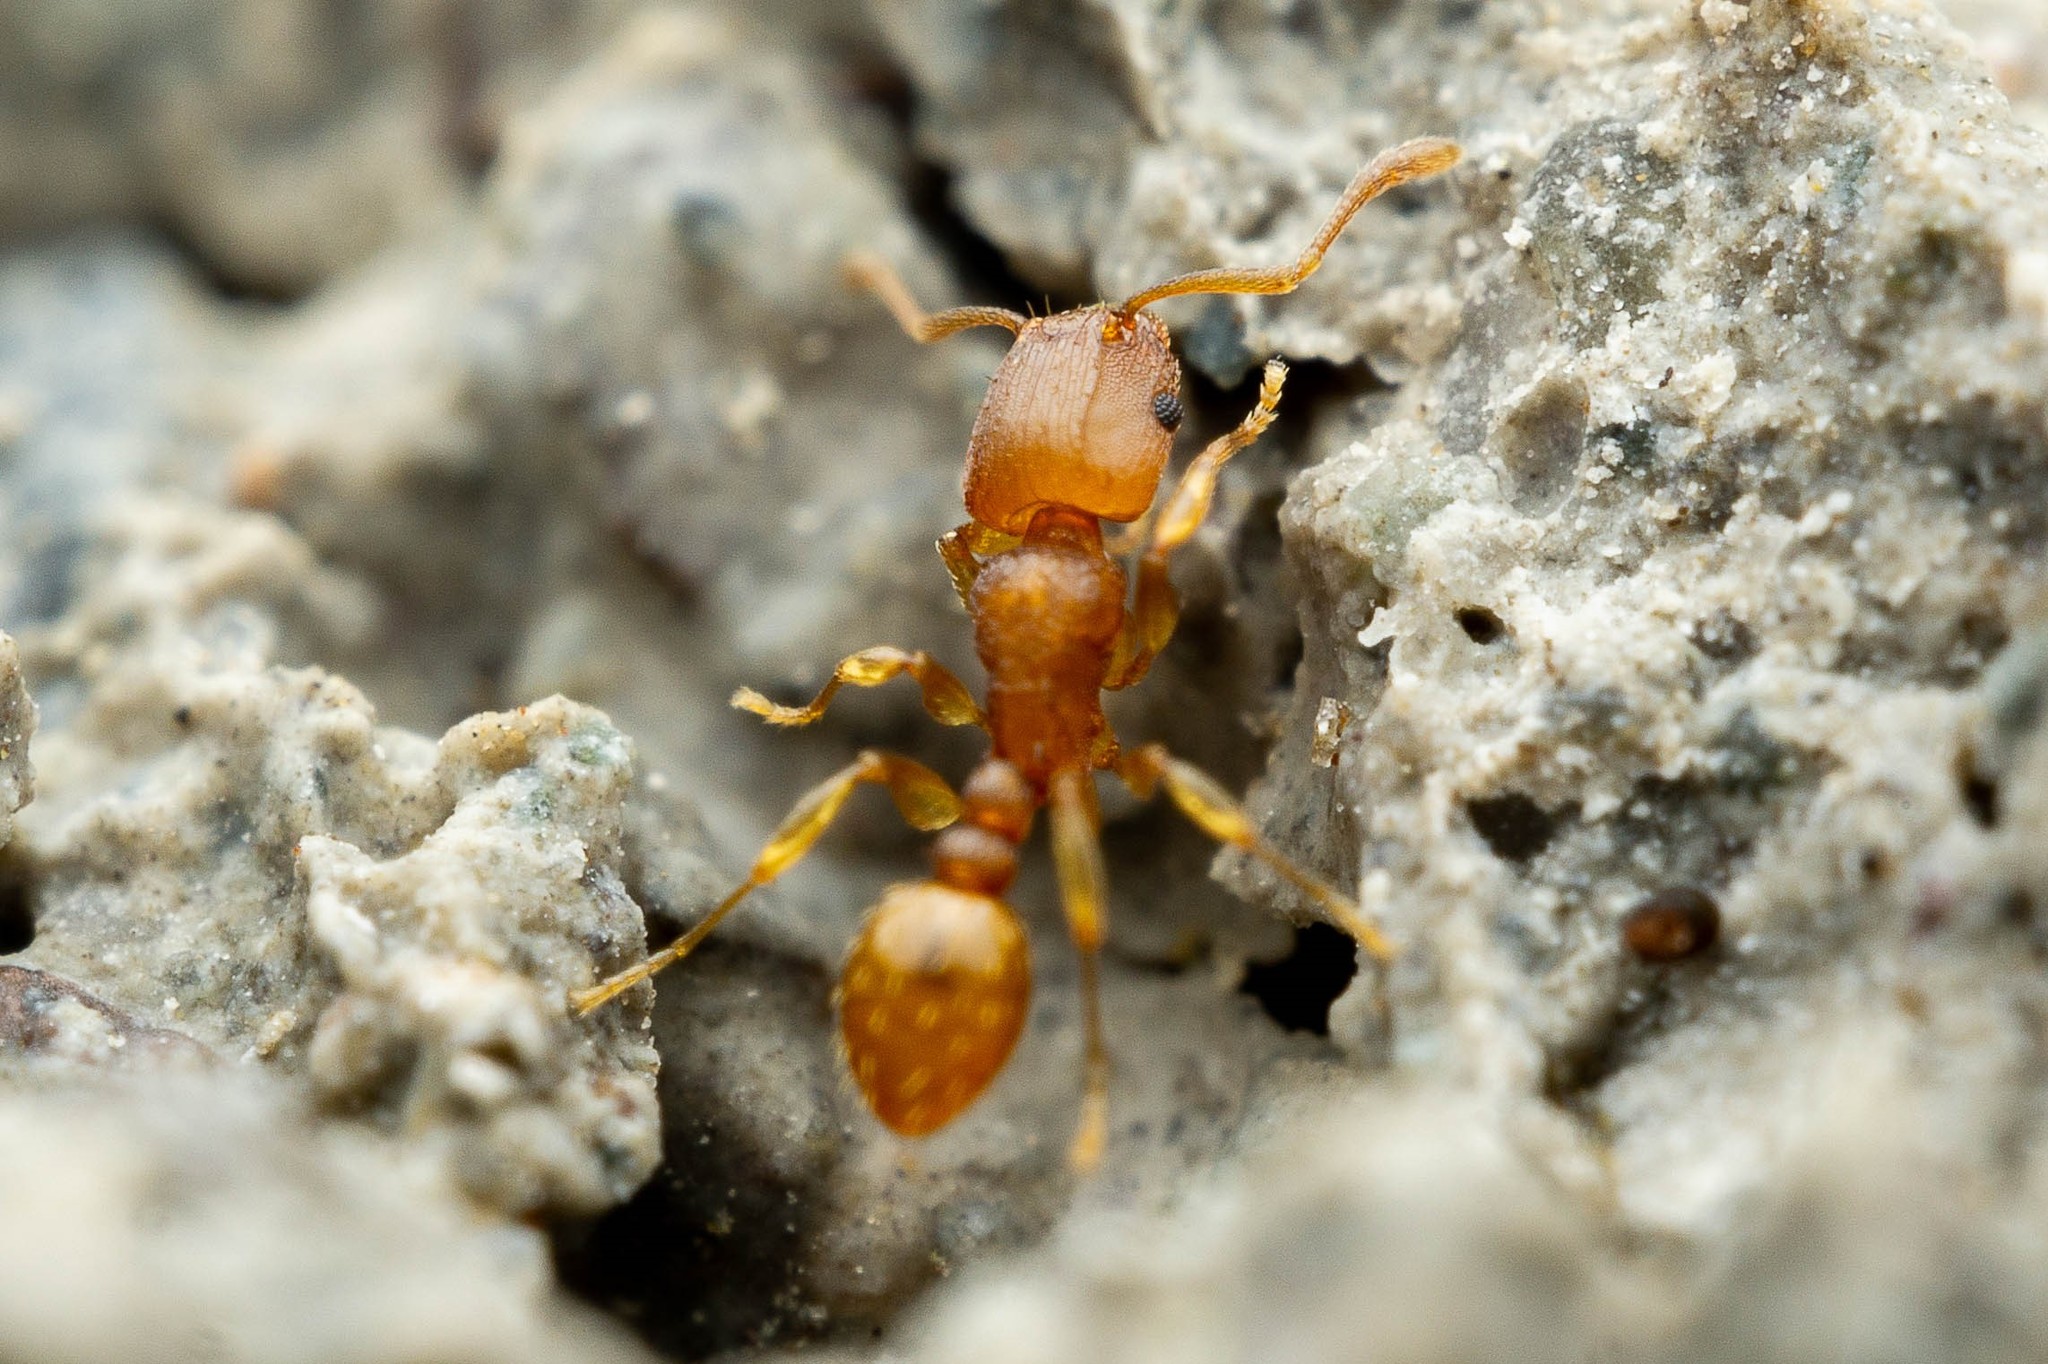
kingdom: Animalia
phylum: Arthropoda
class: Insecta
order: Hymenoptera
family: Formicidae
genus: Tetramorium
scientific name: Tetramorium simillimum
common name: Ant
